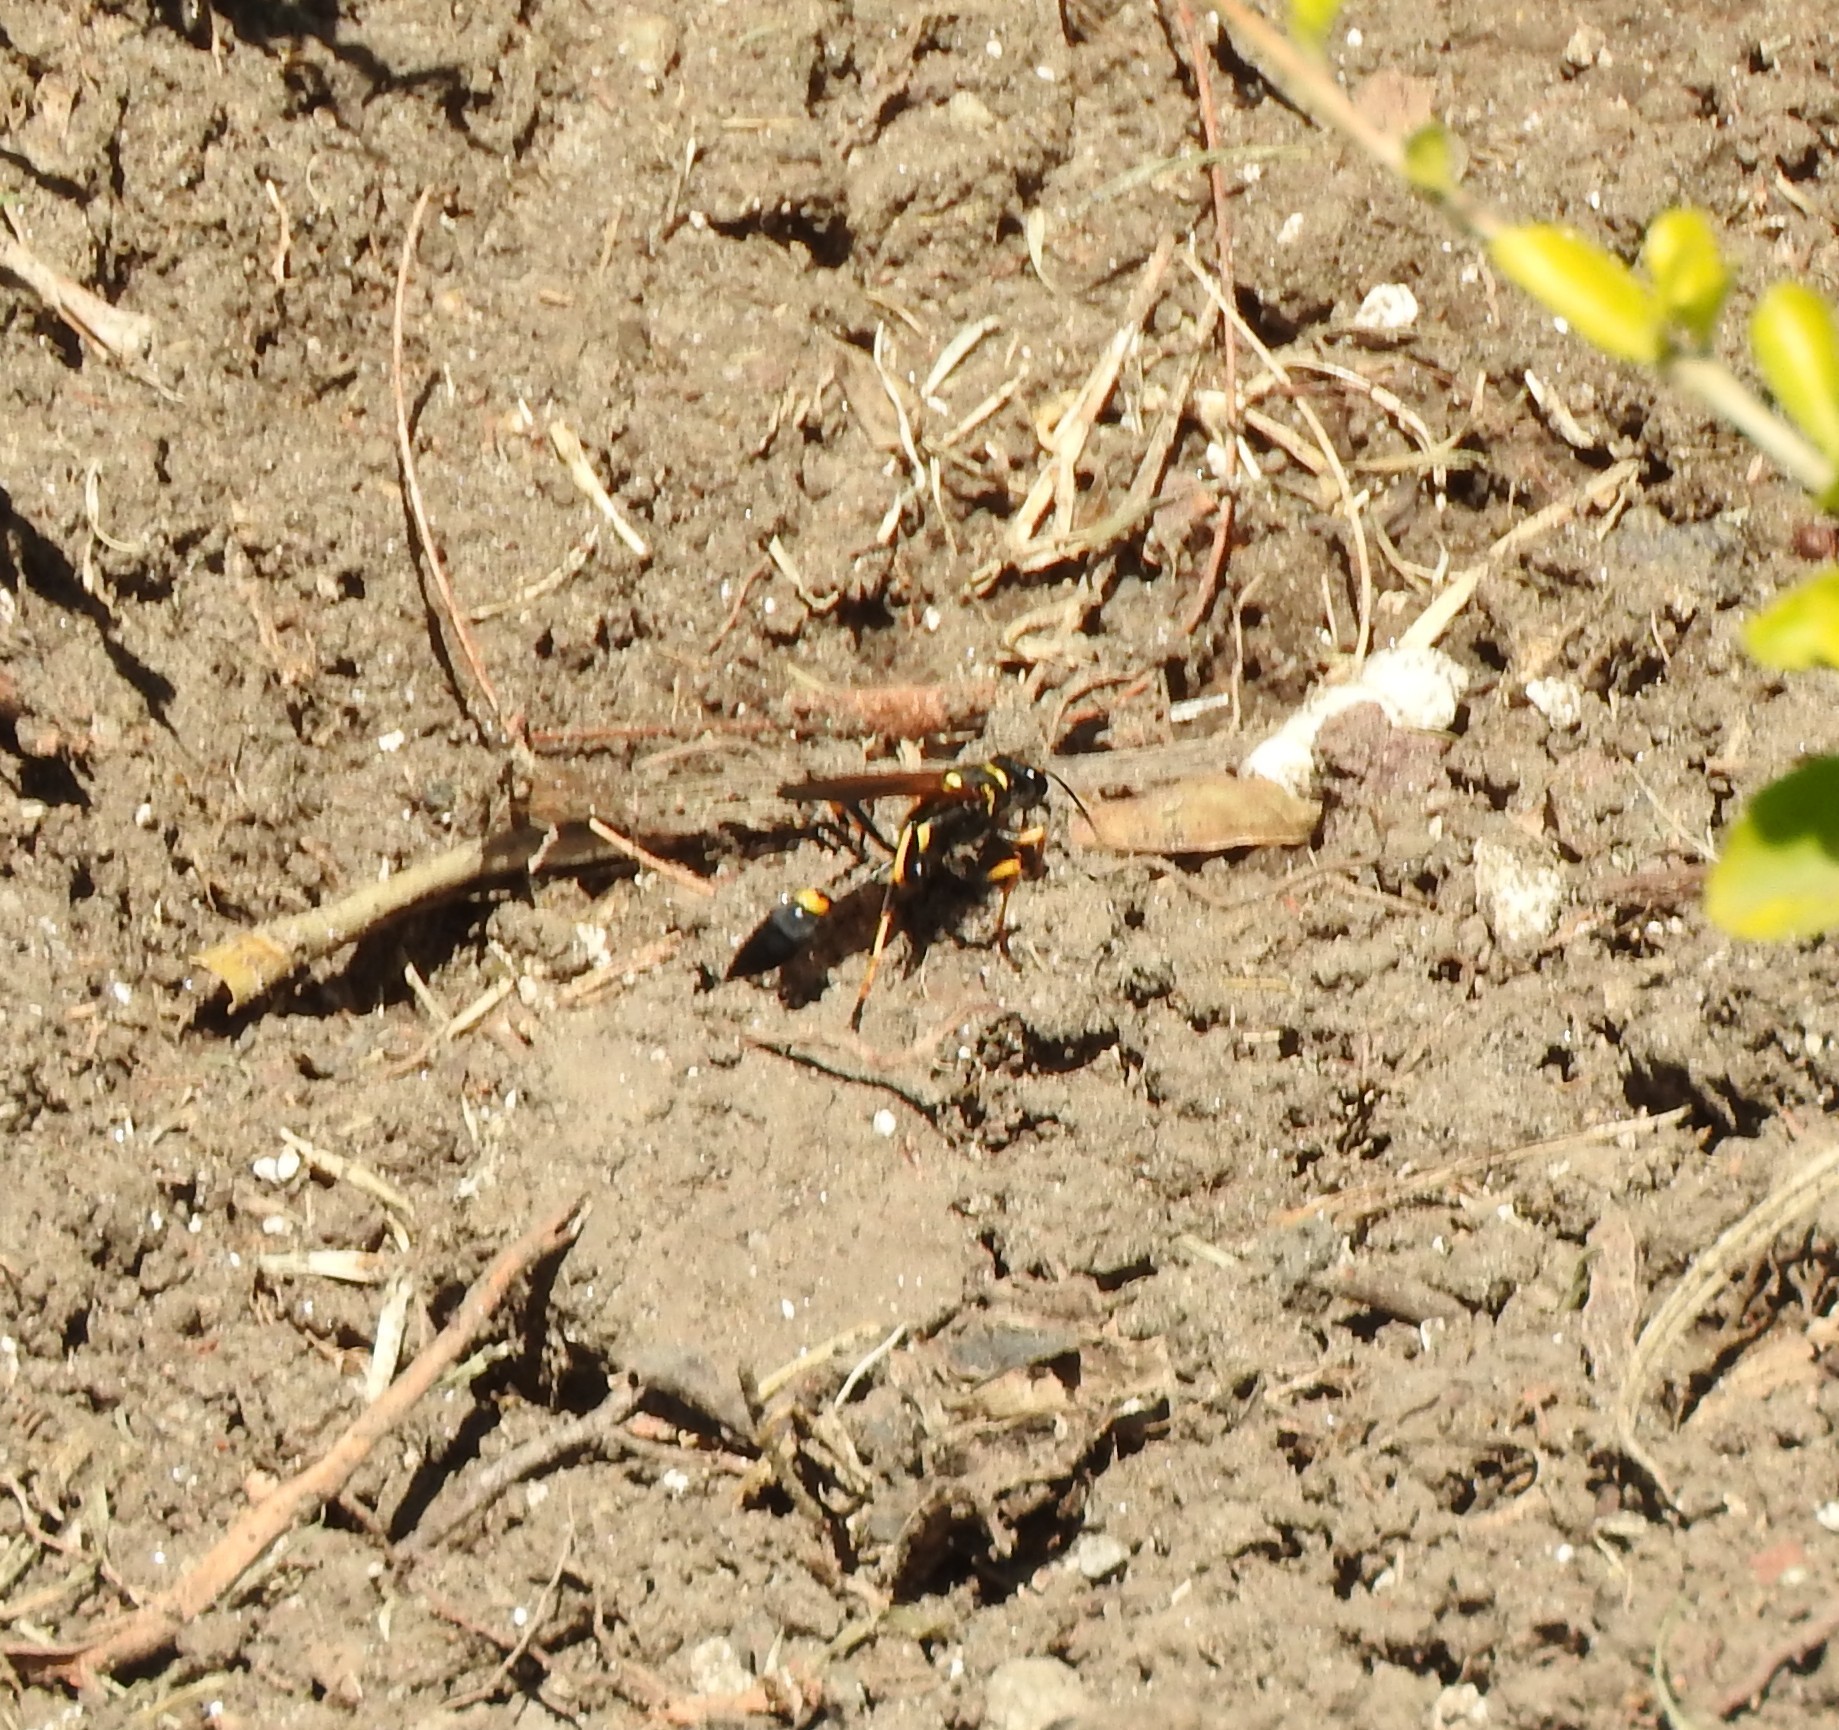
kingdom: Animalia
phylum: Arthropoda
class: Insecta
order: Hymenoptera
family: Sphecidae
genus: Sceliphron
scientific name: Sceliphron caementarium
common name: Mud dauber
